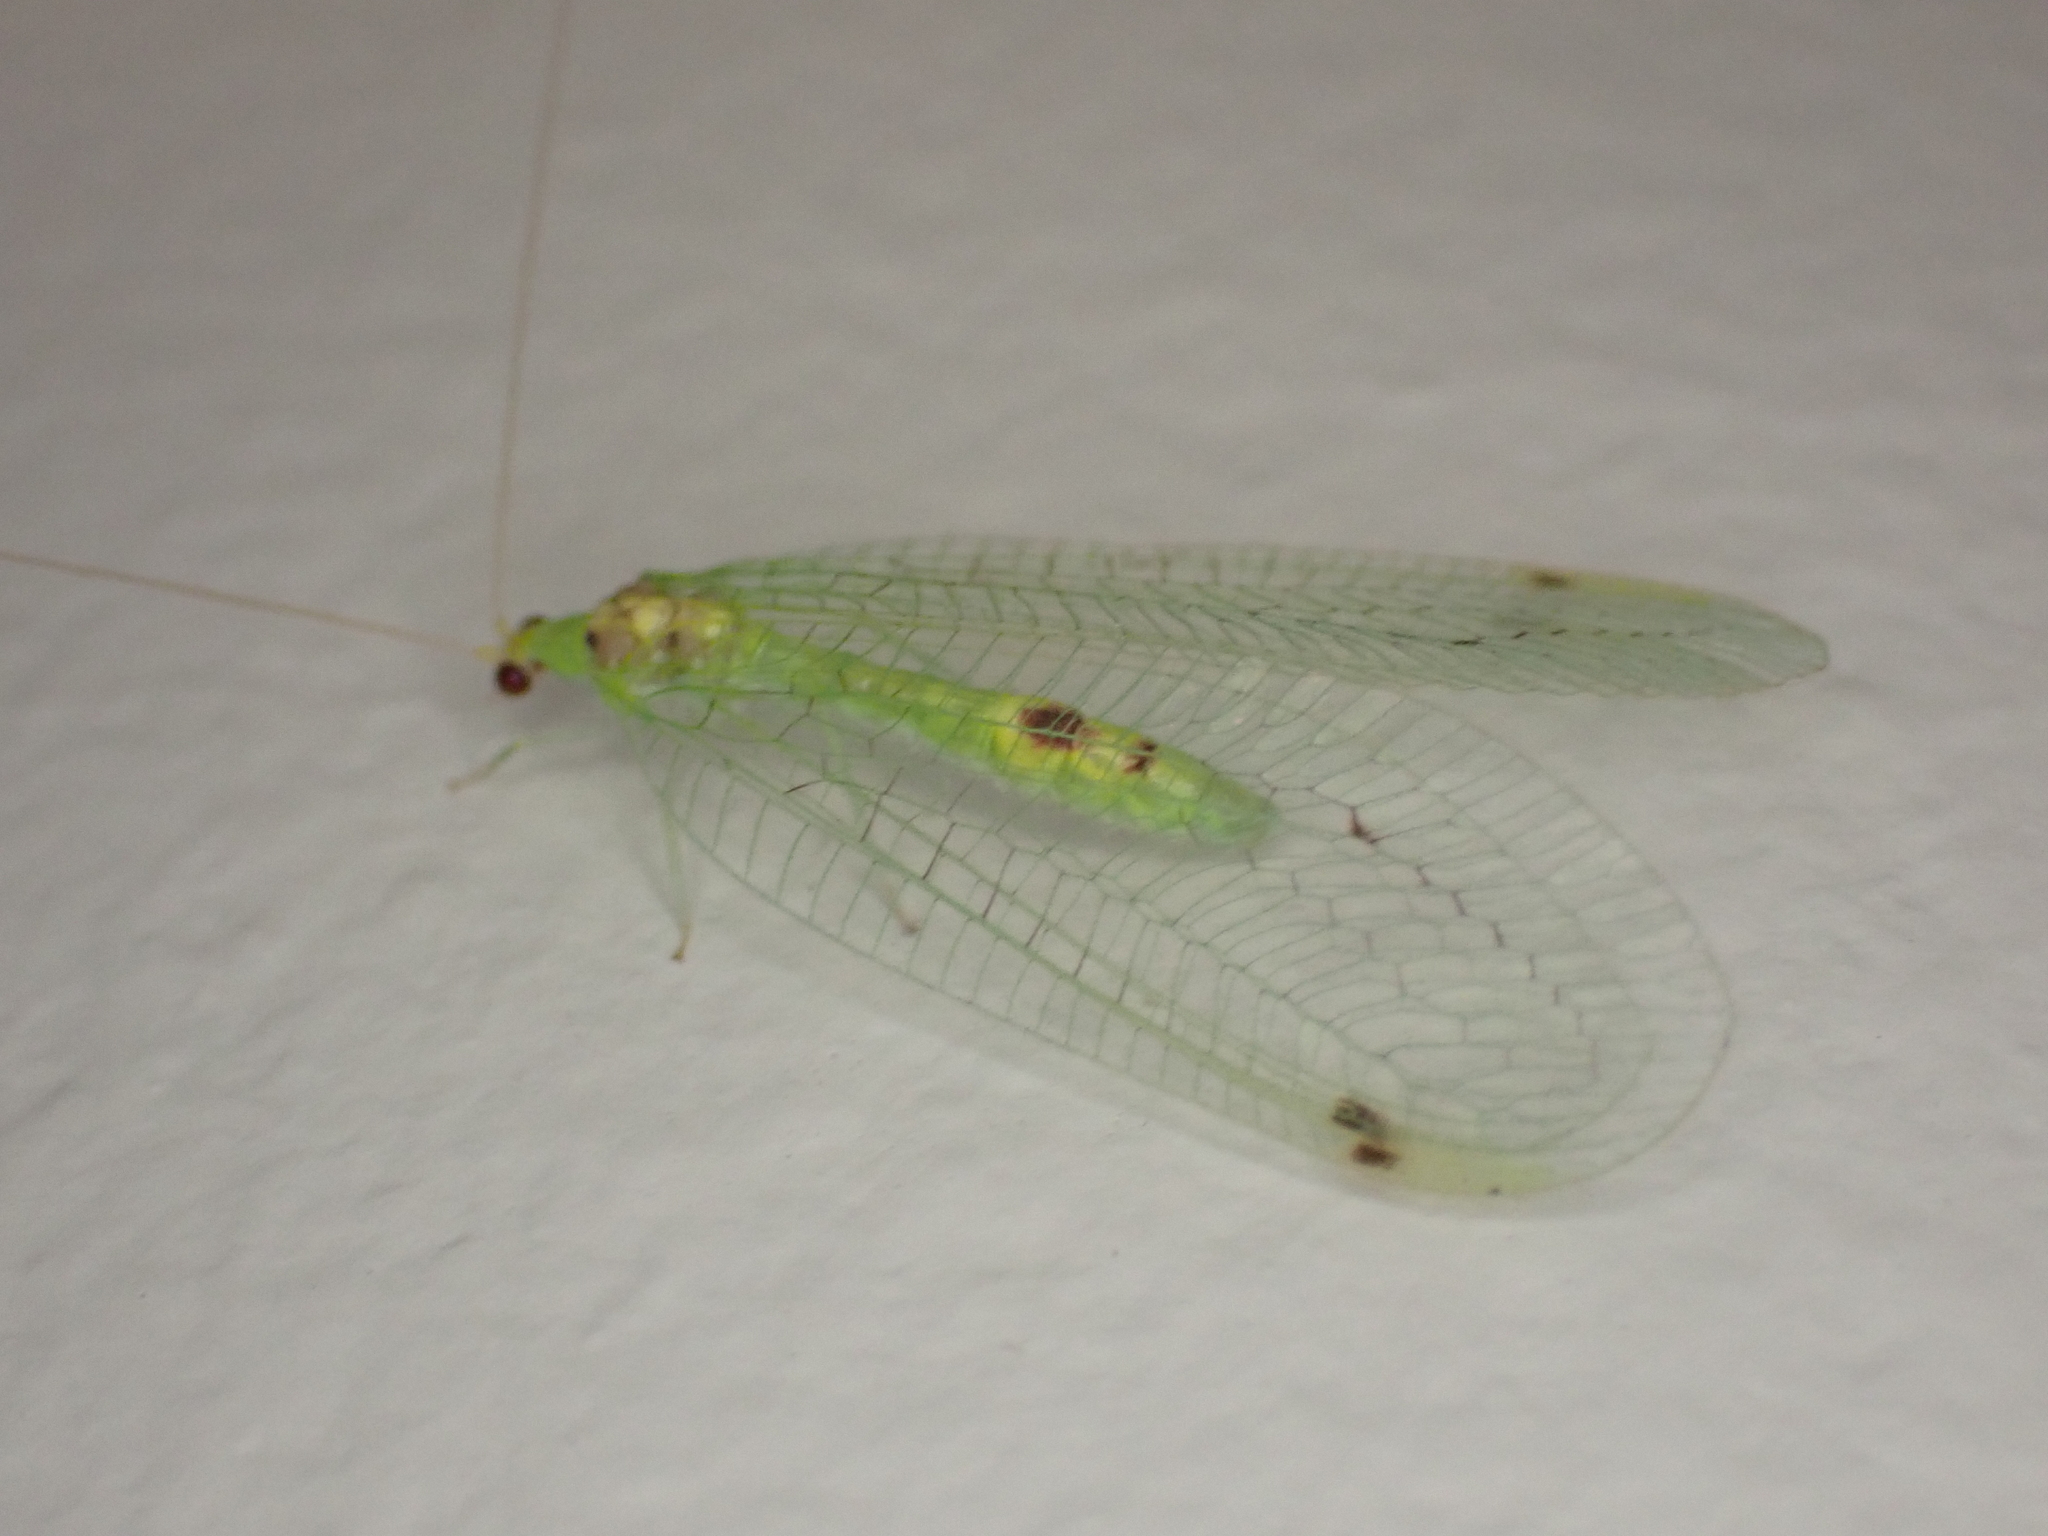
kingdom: Animalia
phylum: Arthropoda
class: Insecta
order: Neuroptera
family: Chrysopidae
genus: Leucochrysa
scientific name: Leucochrysa insularis
